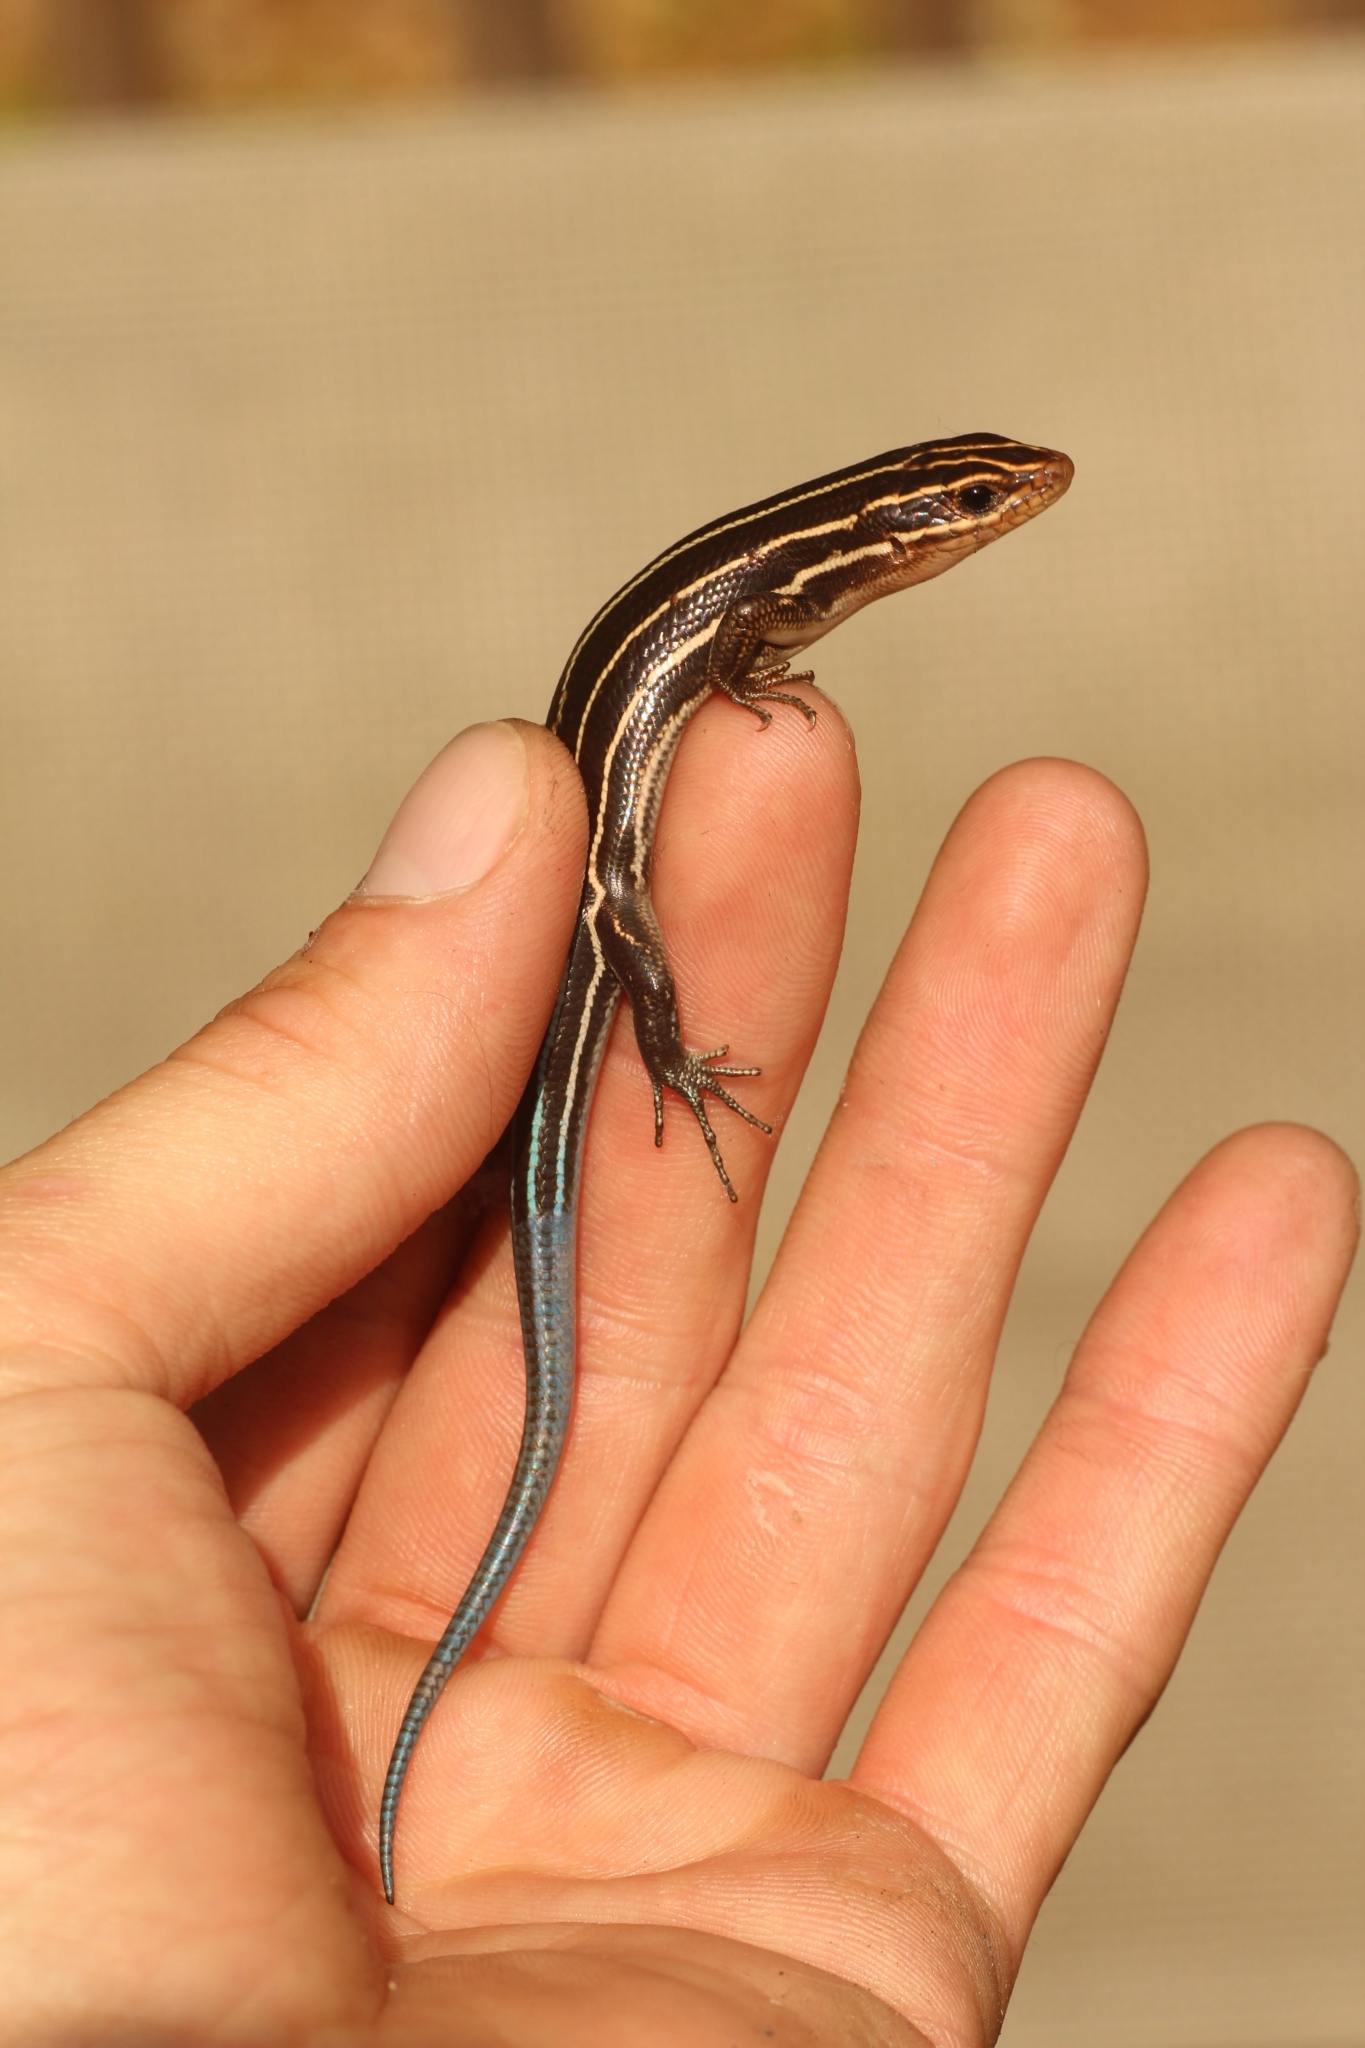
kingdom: Animalia
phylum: Chordata
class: Squamata
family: Scincidae
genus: Plestiodon
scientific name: Plestiodon laticeps
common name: Broadhead skink
